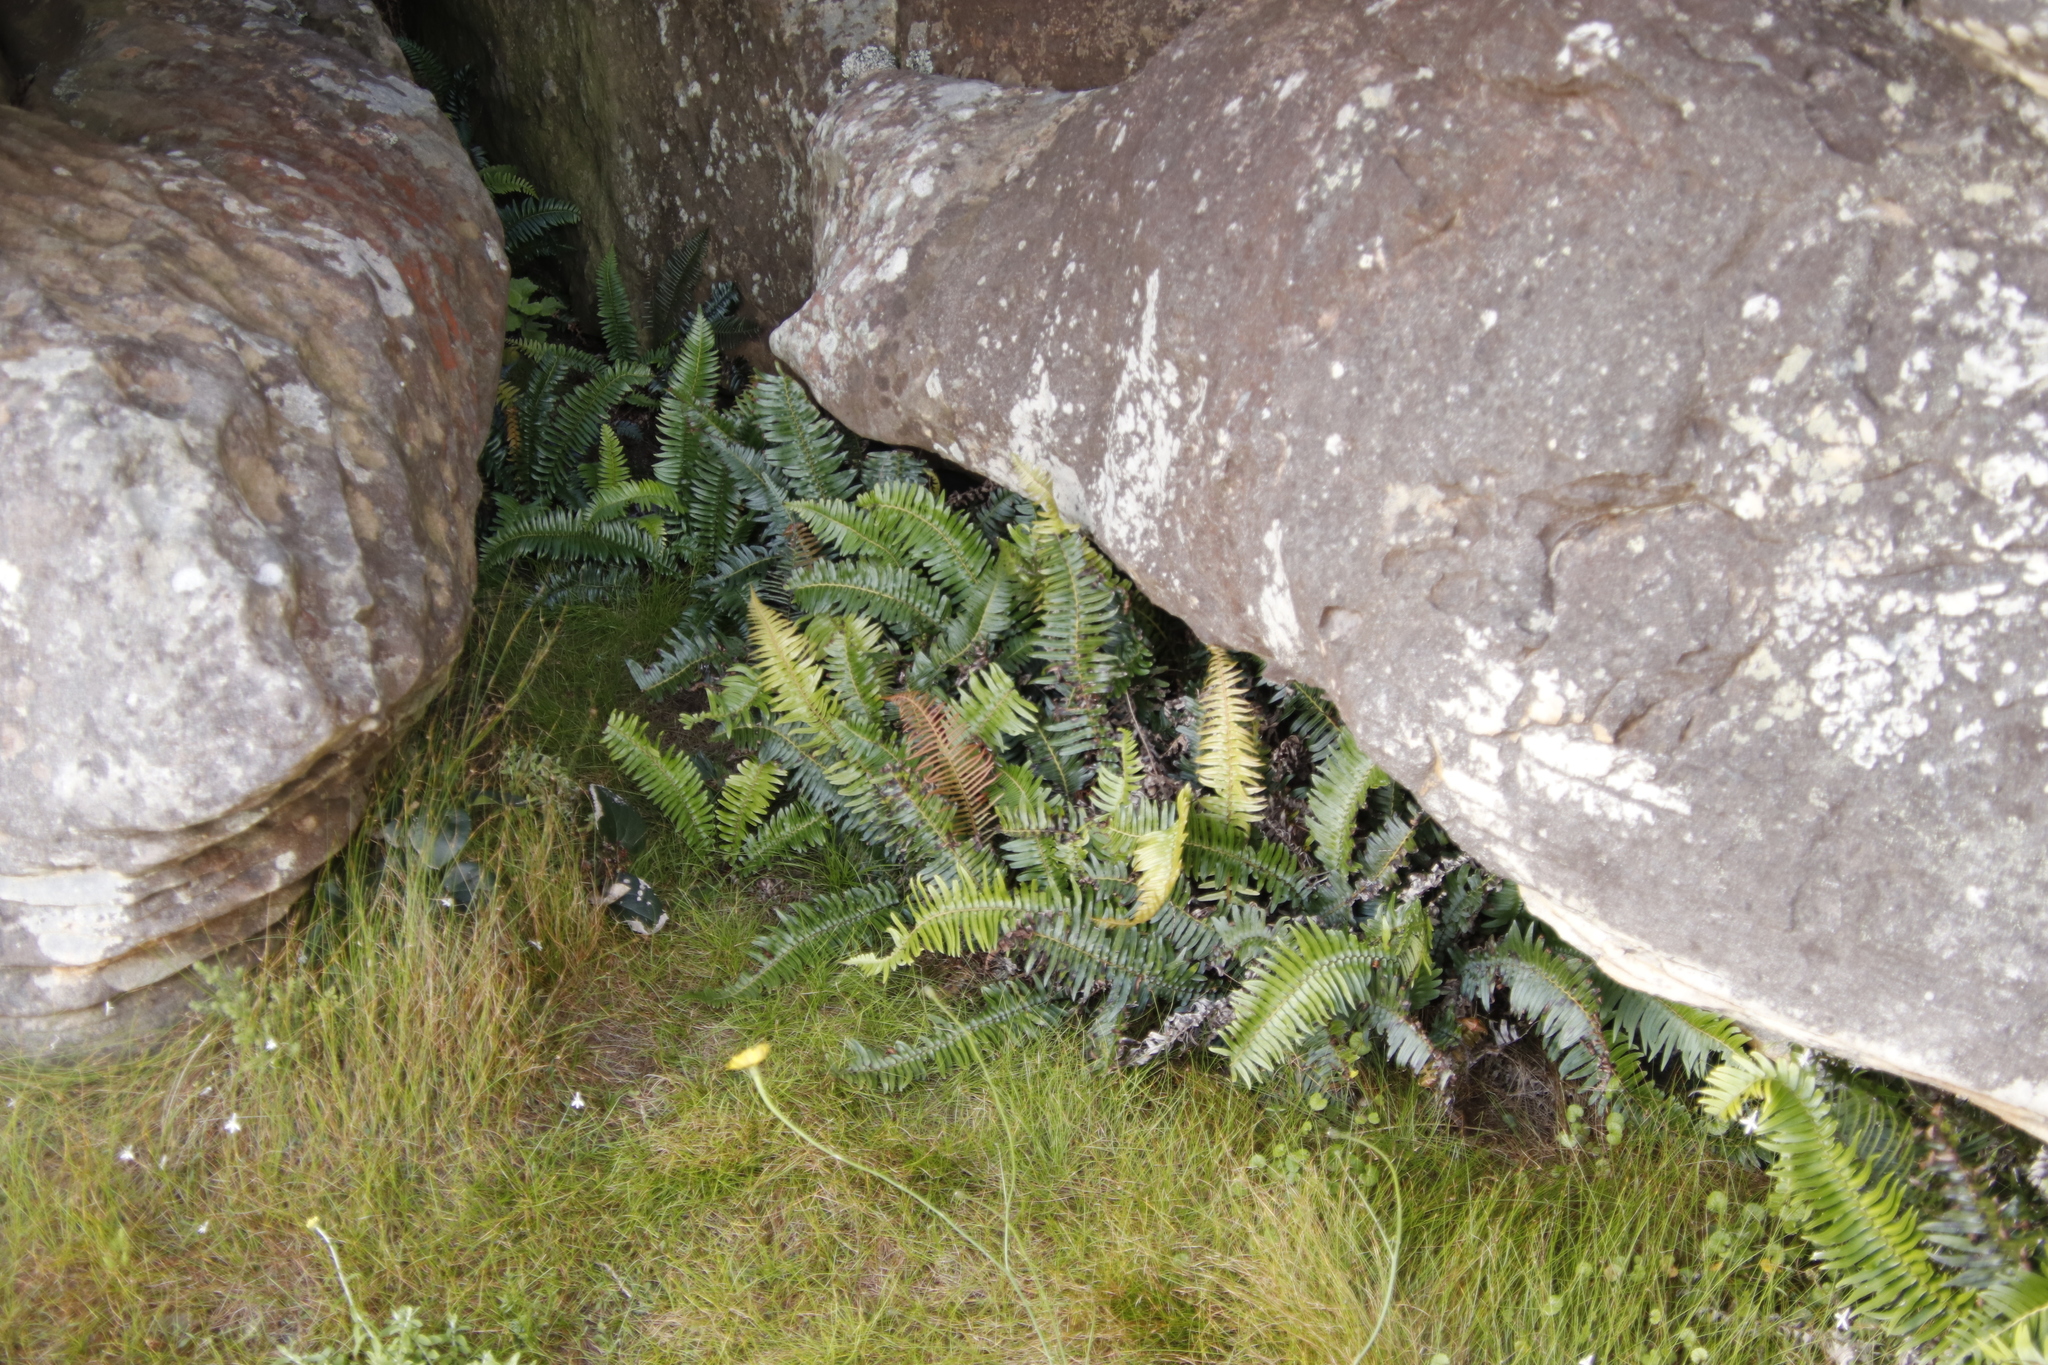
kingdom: Plantae
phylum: Tracheophyta
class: Polypodiopsida
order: Polypodiales
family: Blechnaceae
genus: Blechnum
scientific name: Blechnum punctulatum
